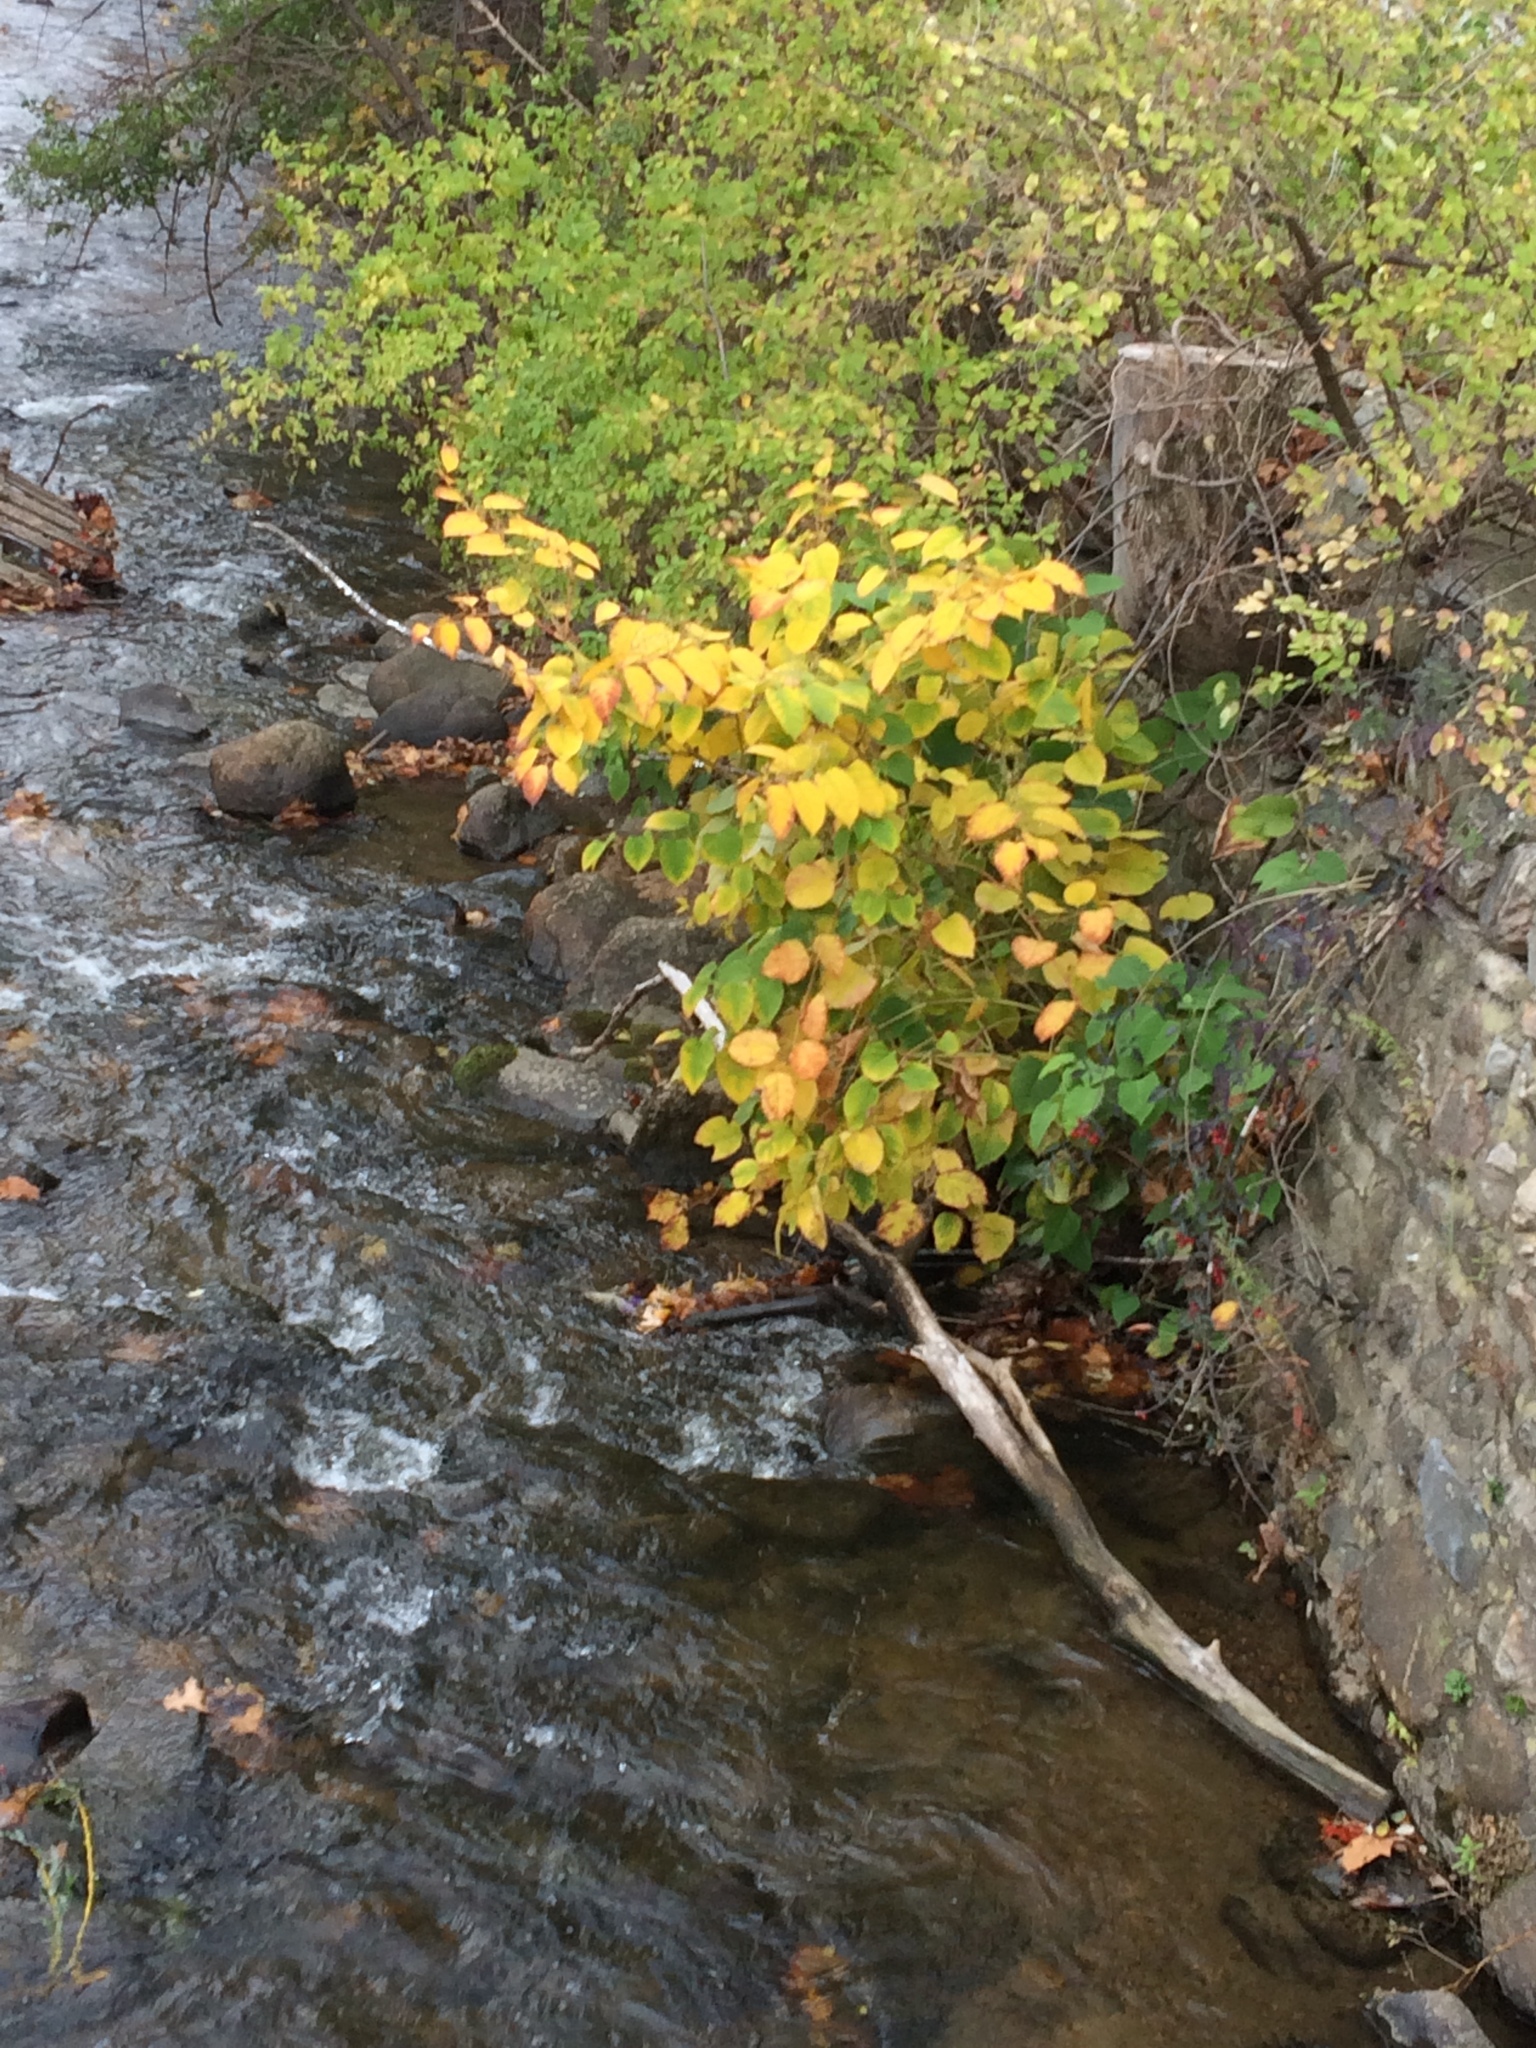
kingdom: Plantae
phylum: Tracheophyta
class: Magnoliopsida
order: Caryophyllales
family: Polygonaceae
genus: Reynoutria
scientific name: Reynoutria japonica
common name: Japanese knotweed
